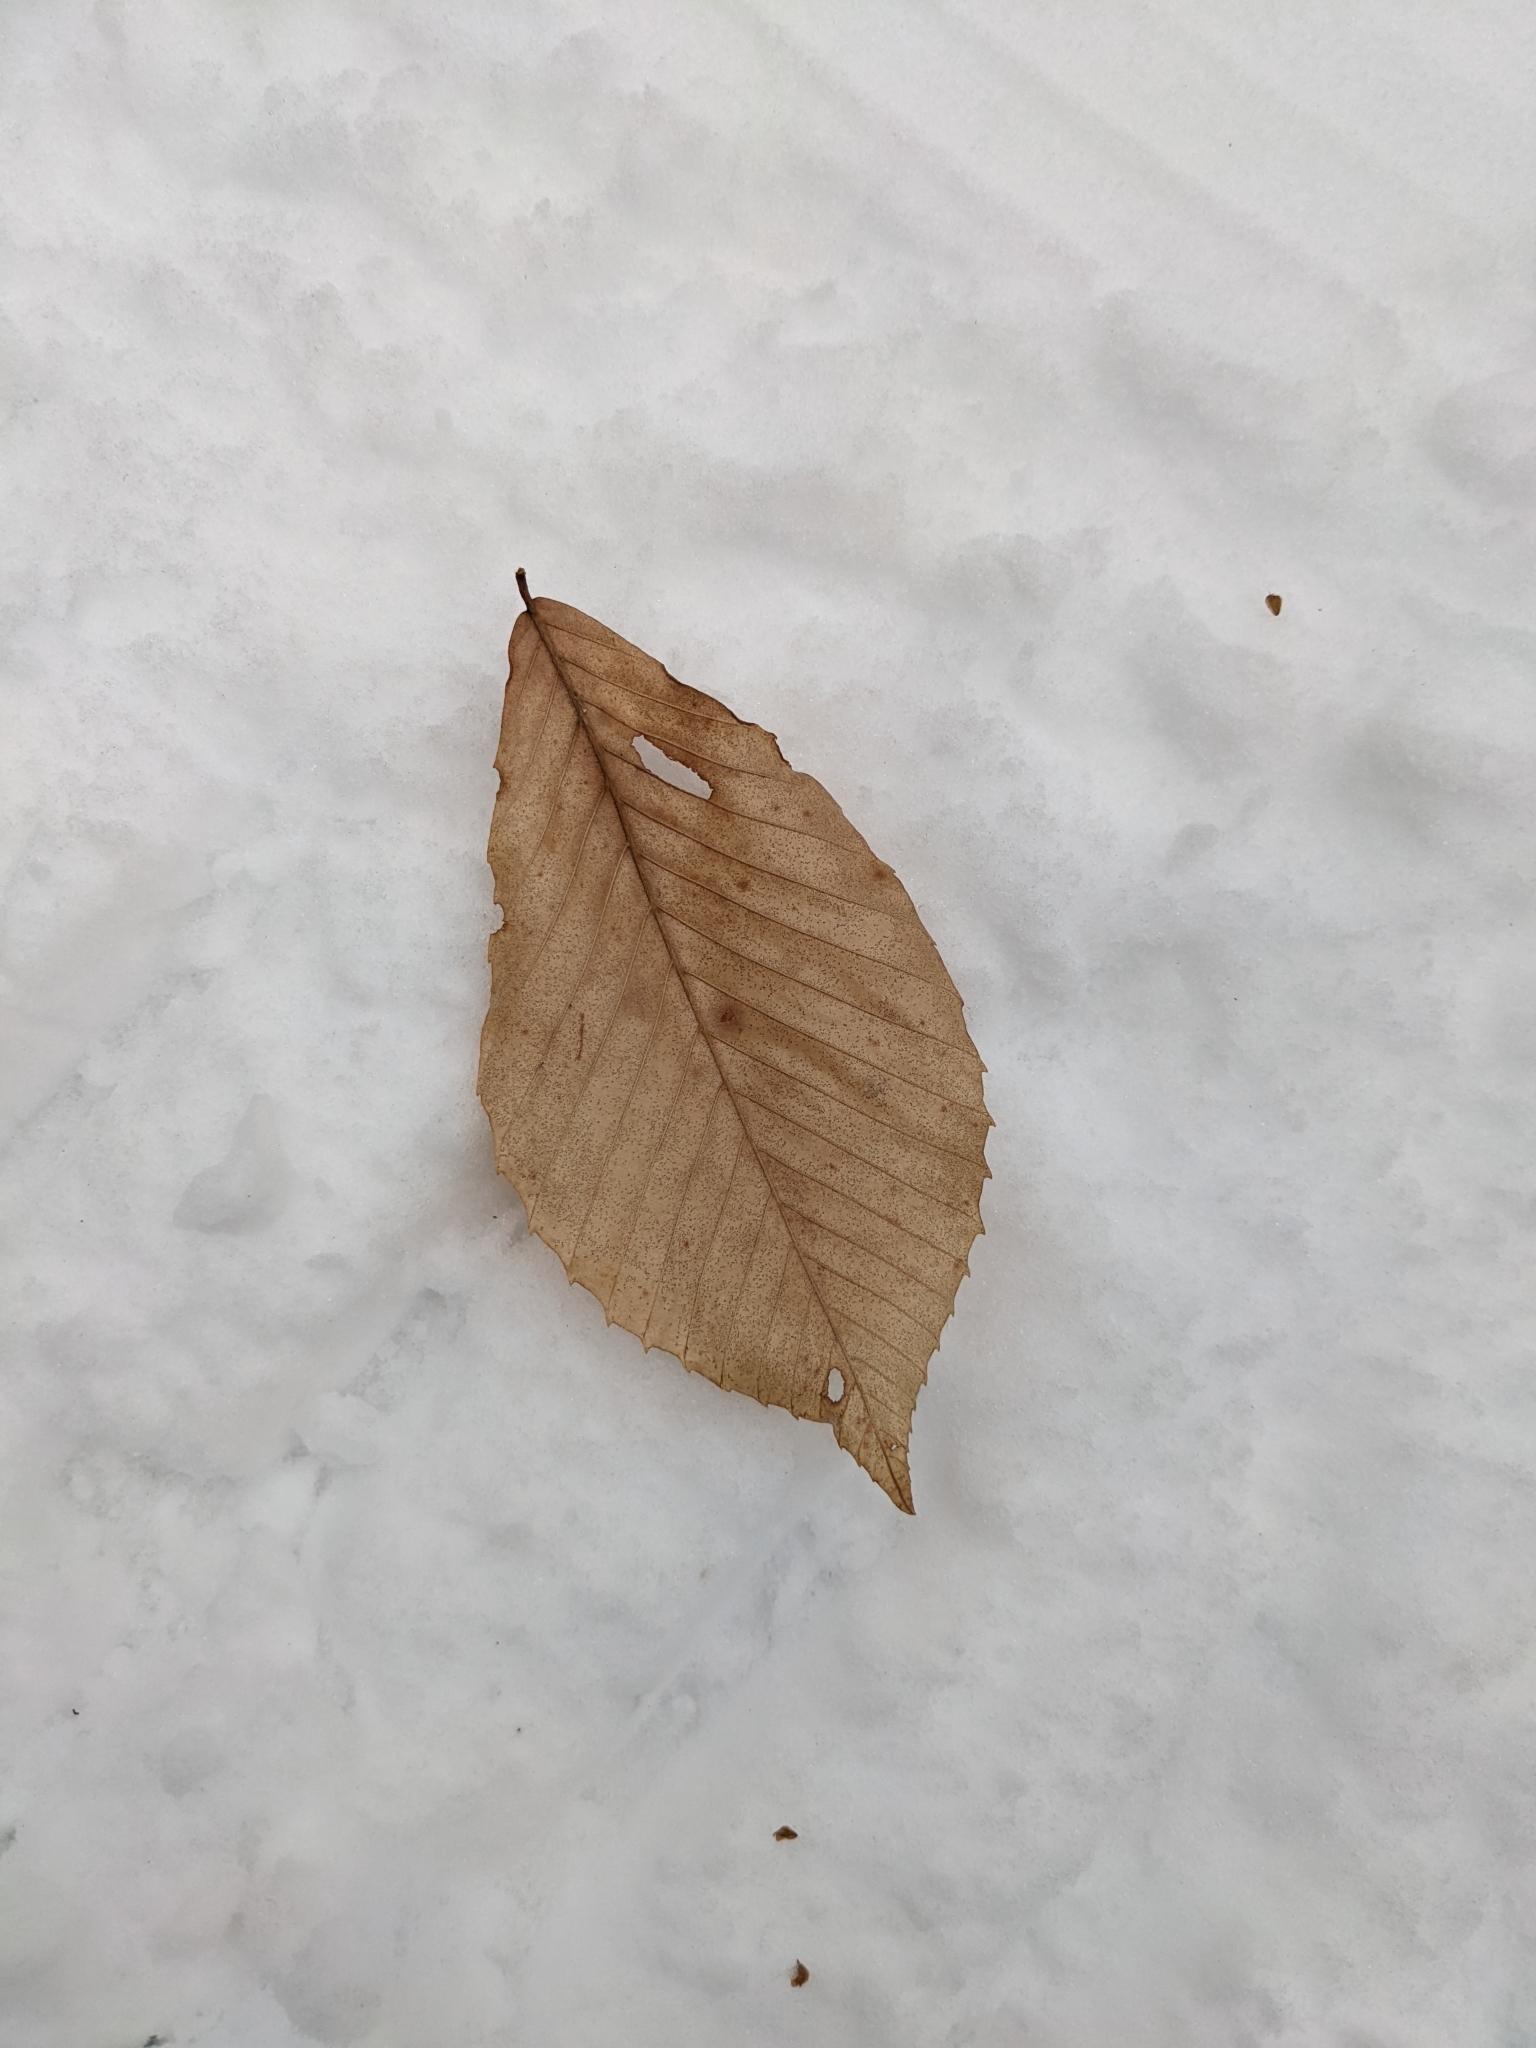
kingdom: Plantae
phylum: Tracheophyta
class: Magnoliopsida
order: Fagales
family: Fagaceae
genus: Fagus
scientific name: Fagus grandifolia
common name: American beech
